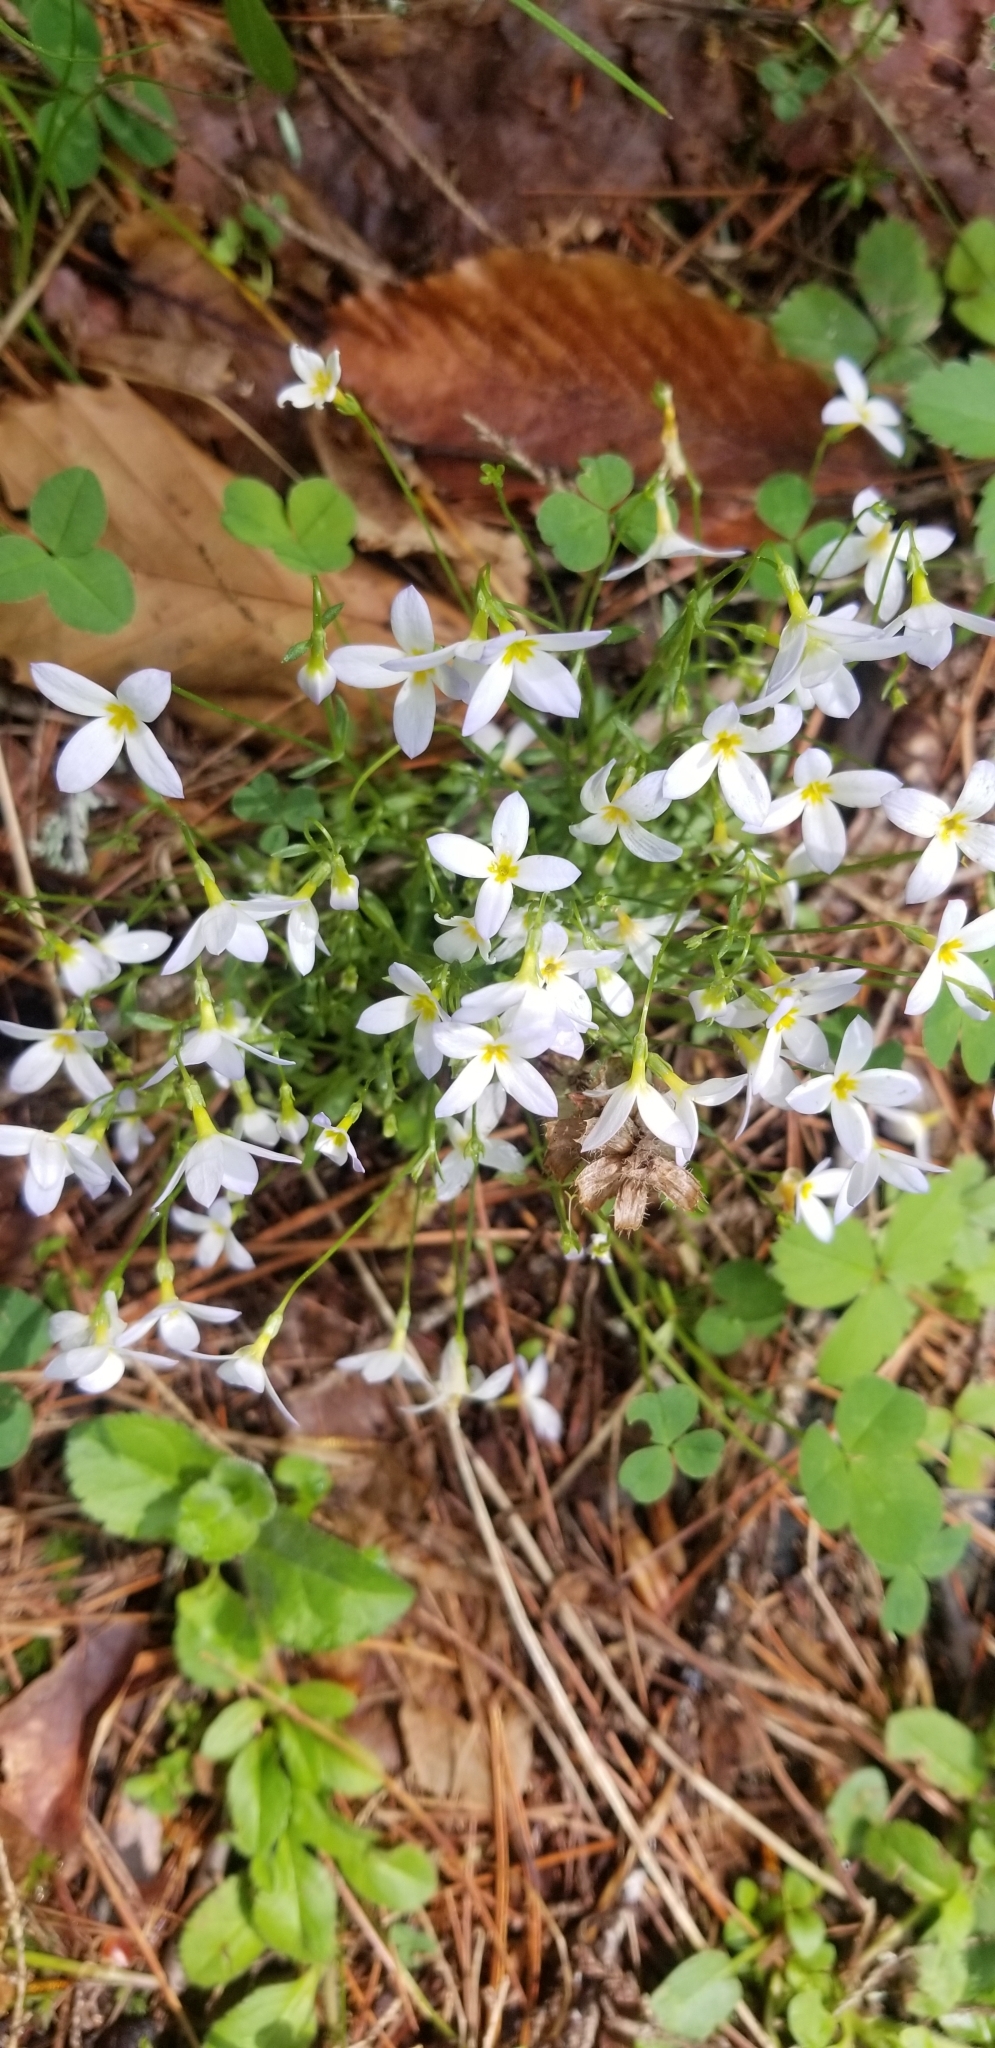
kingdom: Plantae
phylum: Tracheophyta
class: Magnoliopsida
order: Gentianales
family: Rubiaceae
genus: Houstonia
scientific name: Houstonia caerulea
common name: Bluets
